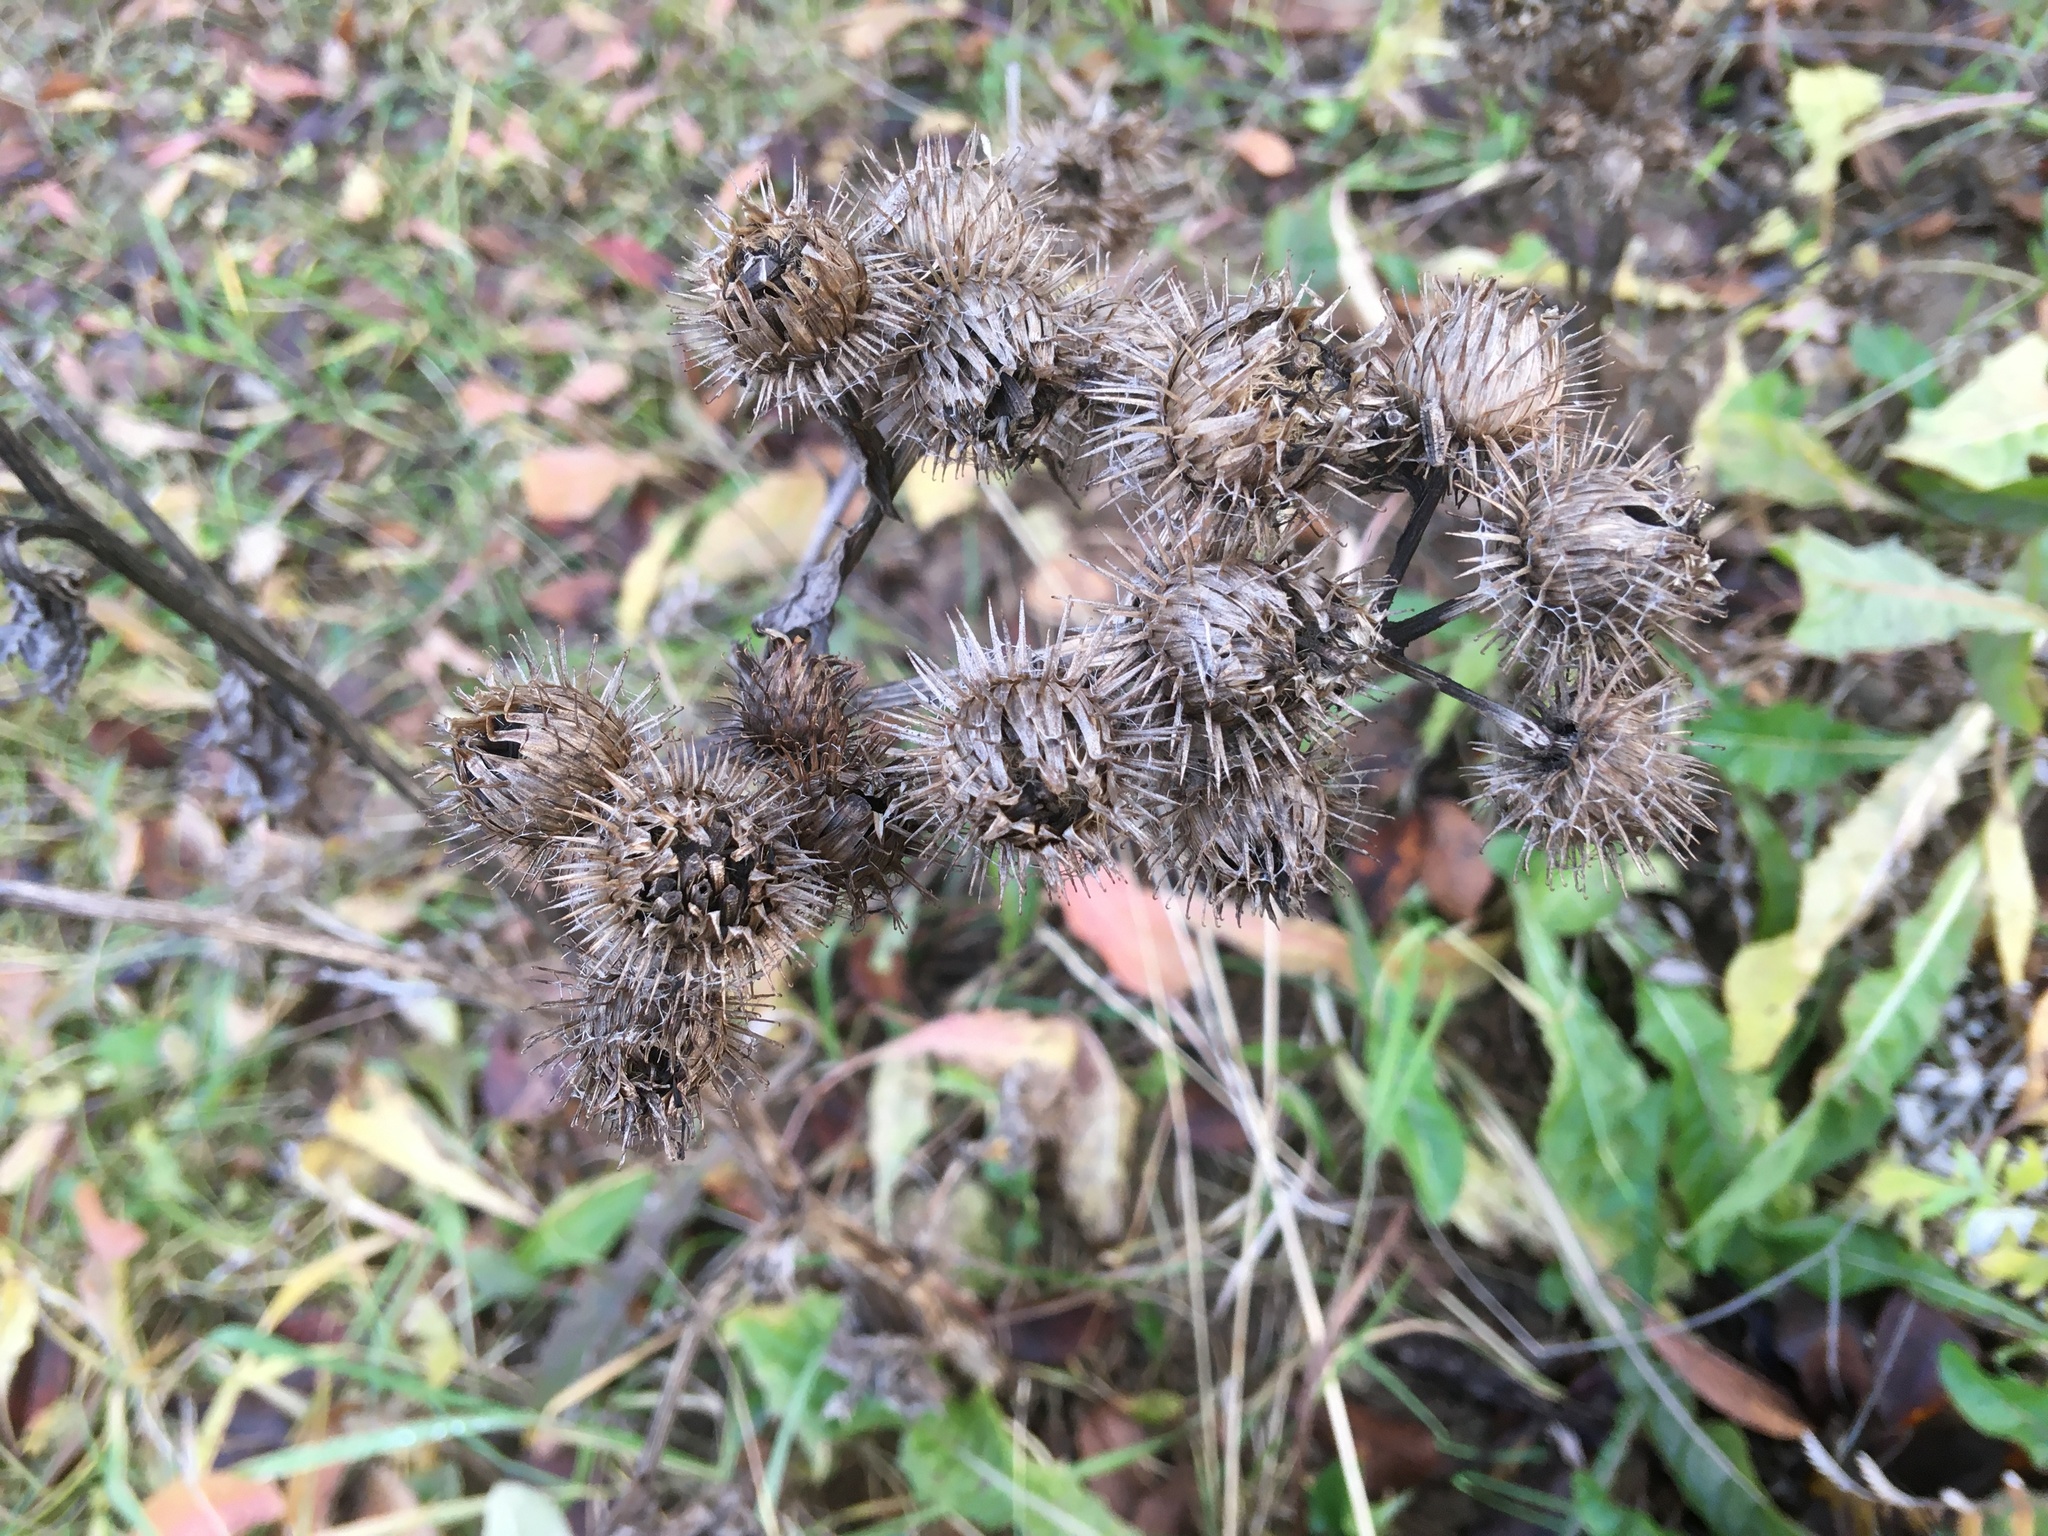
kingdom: Plantae
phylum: Tracheophyta
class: Magnoliopsida
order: Asterales
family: Asteraceae
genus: Arctium
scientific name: Arctium tomentosum
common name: Woolly burdock
